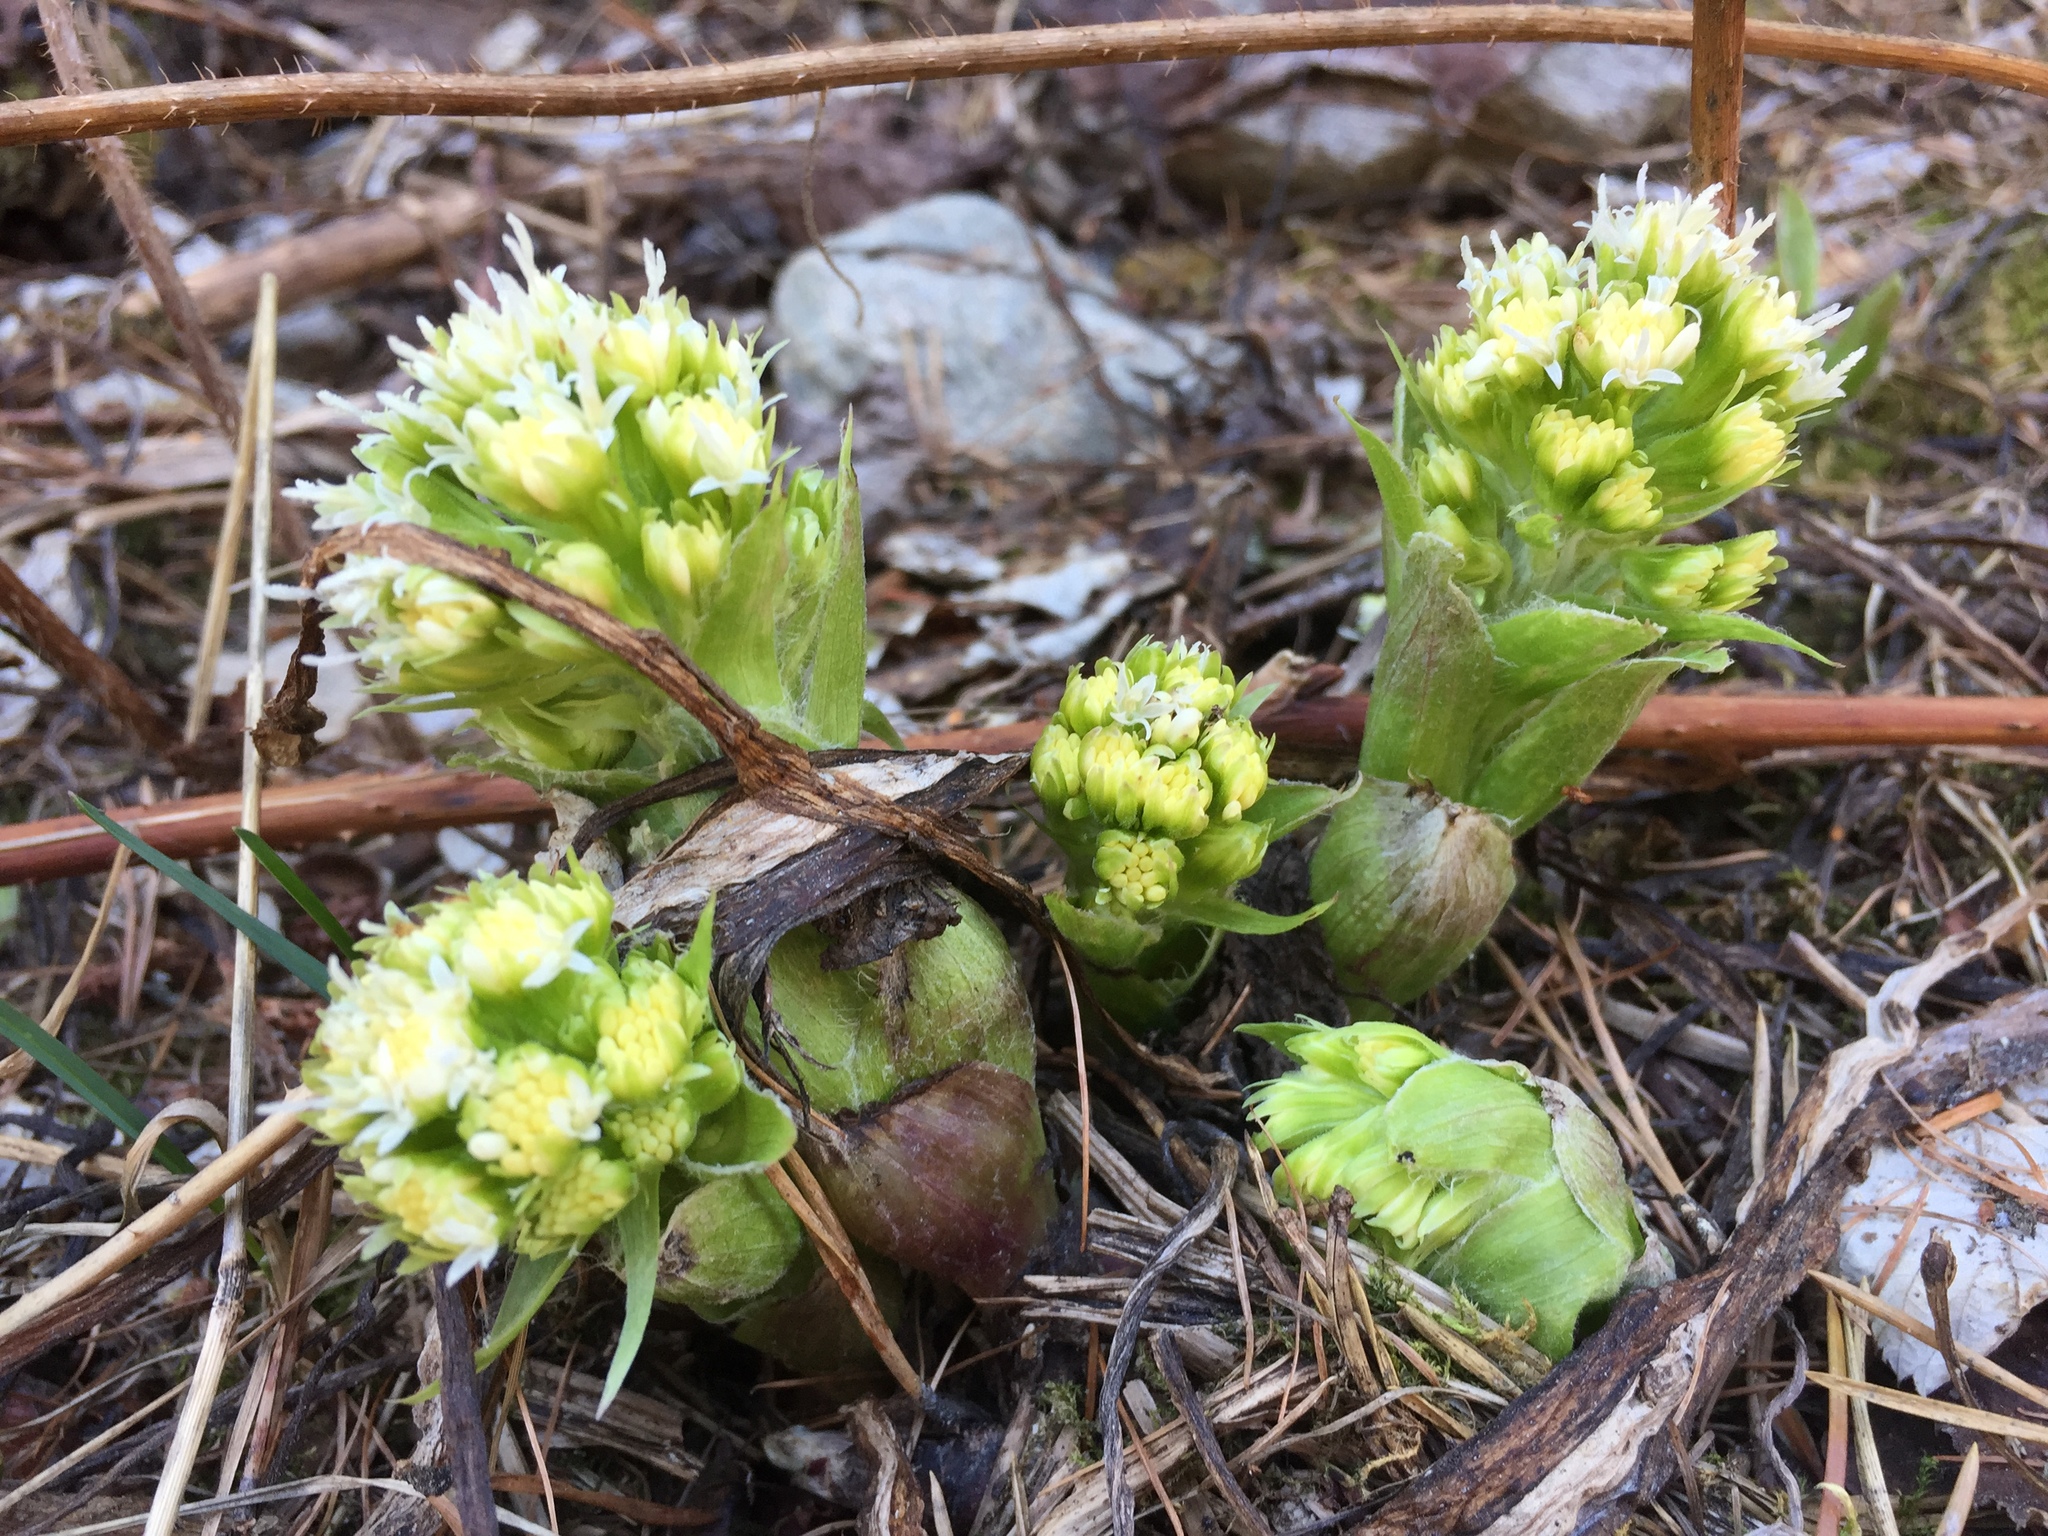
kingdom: Plantae
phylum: Tracheophyta
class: Magnoliopsida
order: Asterales
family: Asteraceae
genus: Petasites
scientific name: Petasites albus
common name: White butterbur
